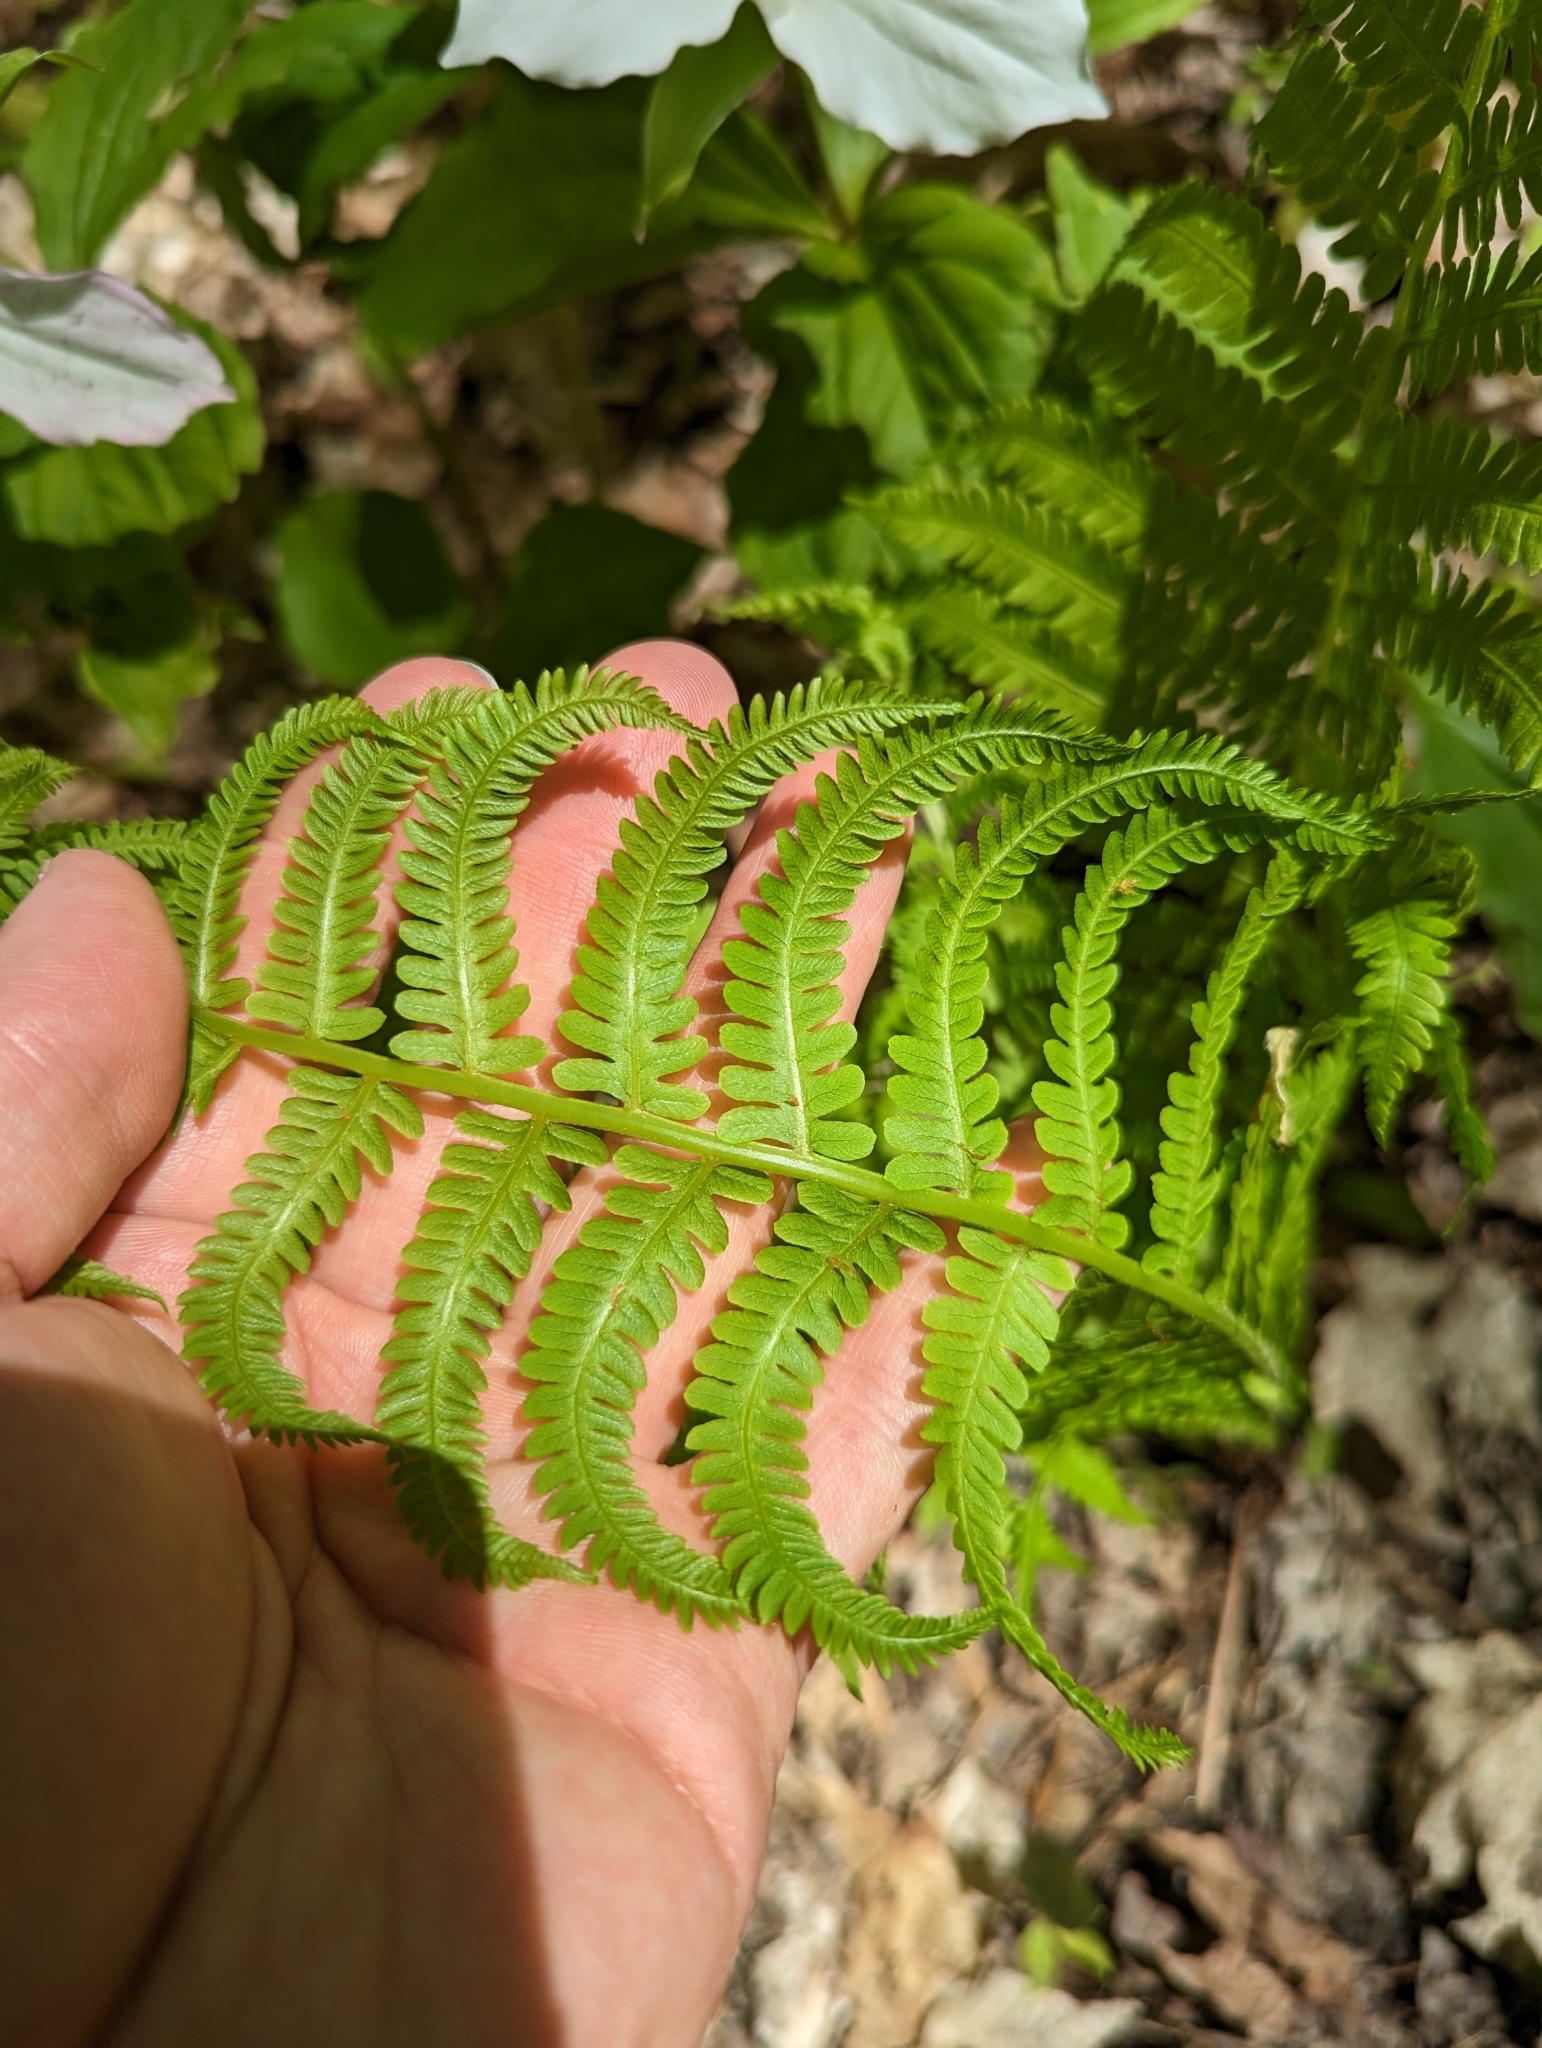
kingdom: Plantae
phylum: Tracheophyta
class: Polypodiopsida
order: Polypodiales
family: Onocleaceae
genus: Matteuccia
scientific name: Matteuccia struthiopteris
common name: Ostrich fern
